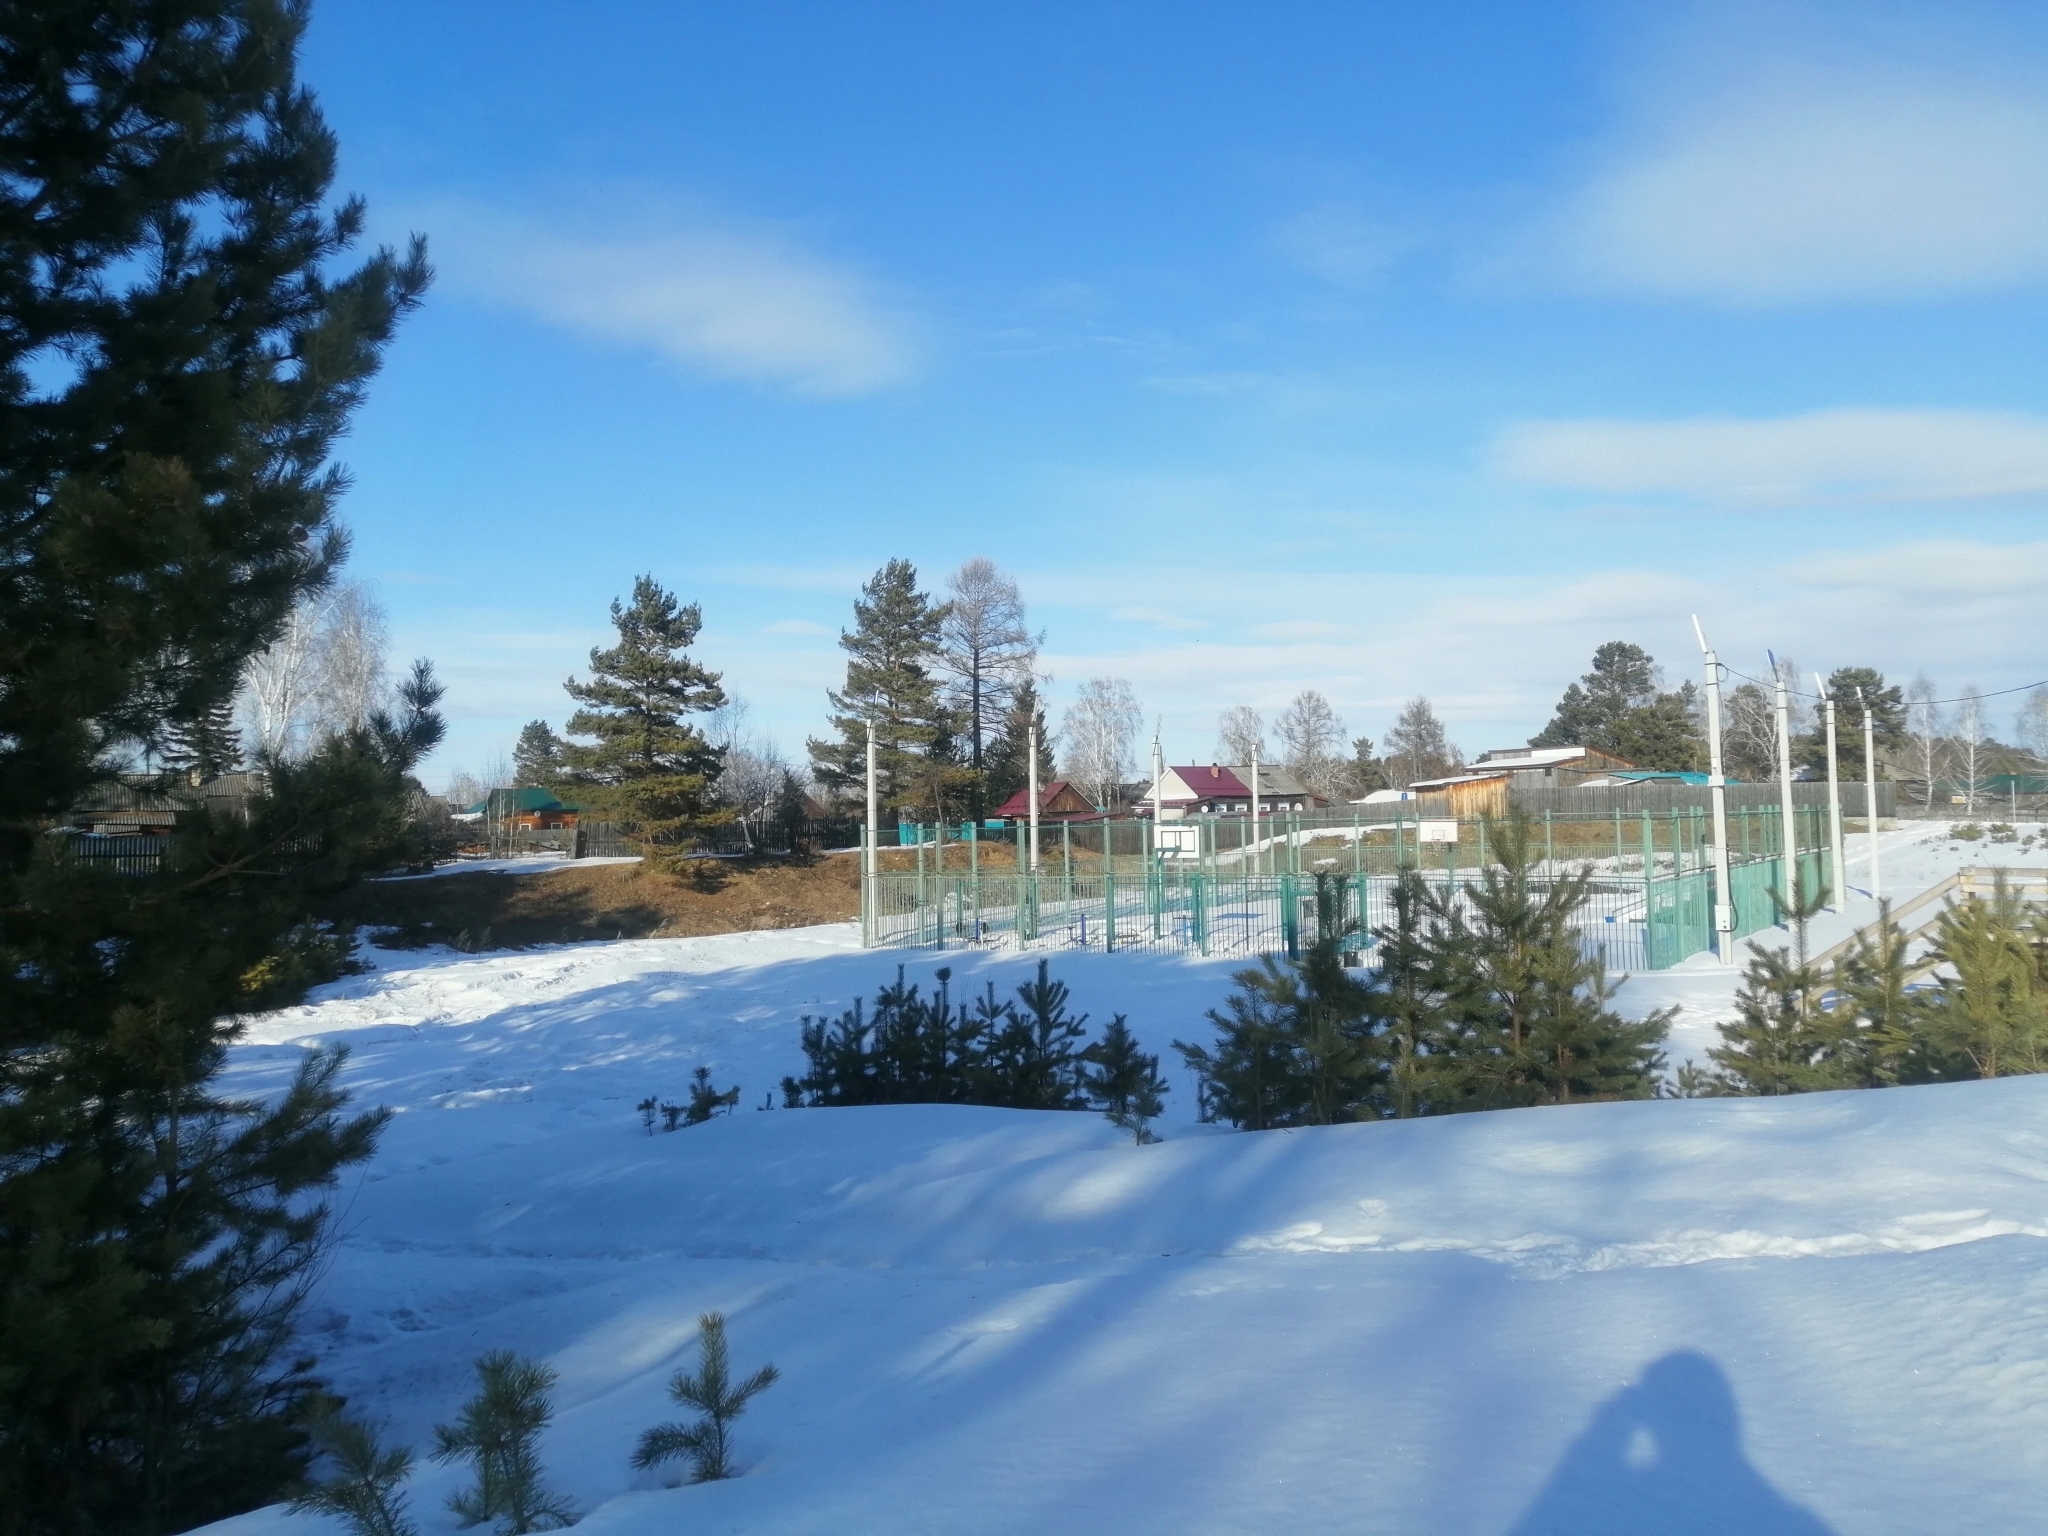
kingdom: Plantae
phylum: Tracheophyta
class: Pinopsida
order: Pinales
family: Pinaceae
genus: Pinus
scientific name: Pinus sylvestris
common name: Scots pine
